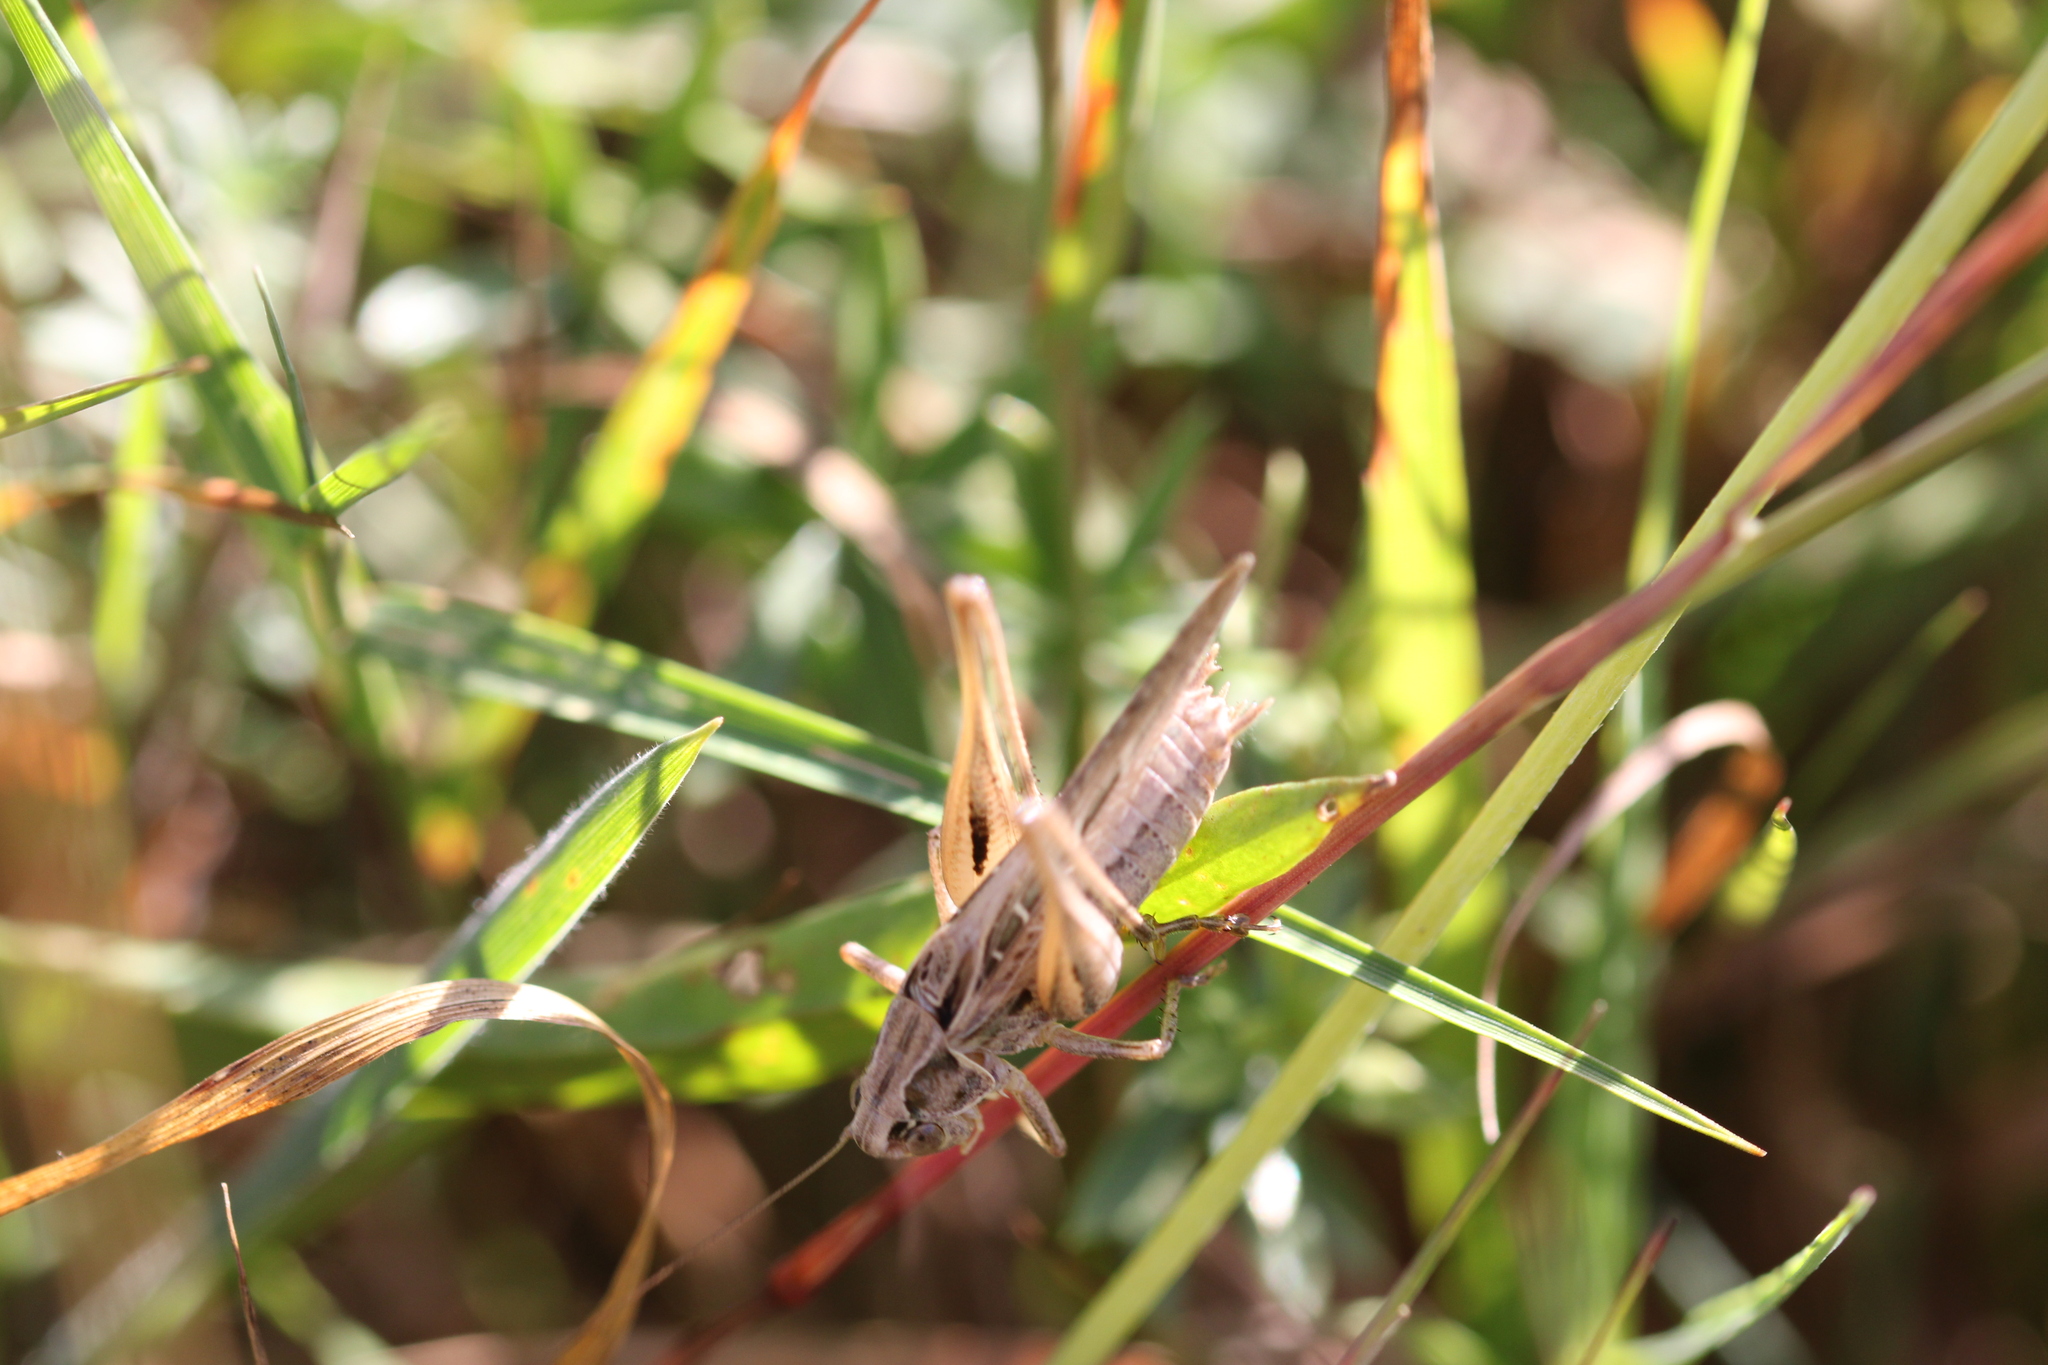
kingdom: Animalia
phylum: Arthropoda
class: Insecta
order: Orthoptera
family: Tettigoniidae
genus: Tessellana
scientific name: Tessellana tessellata
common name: Grasshopper
